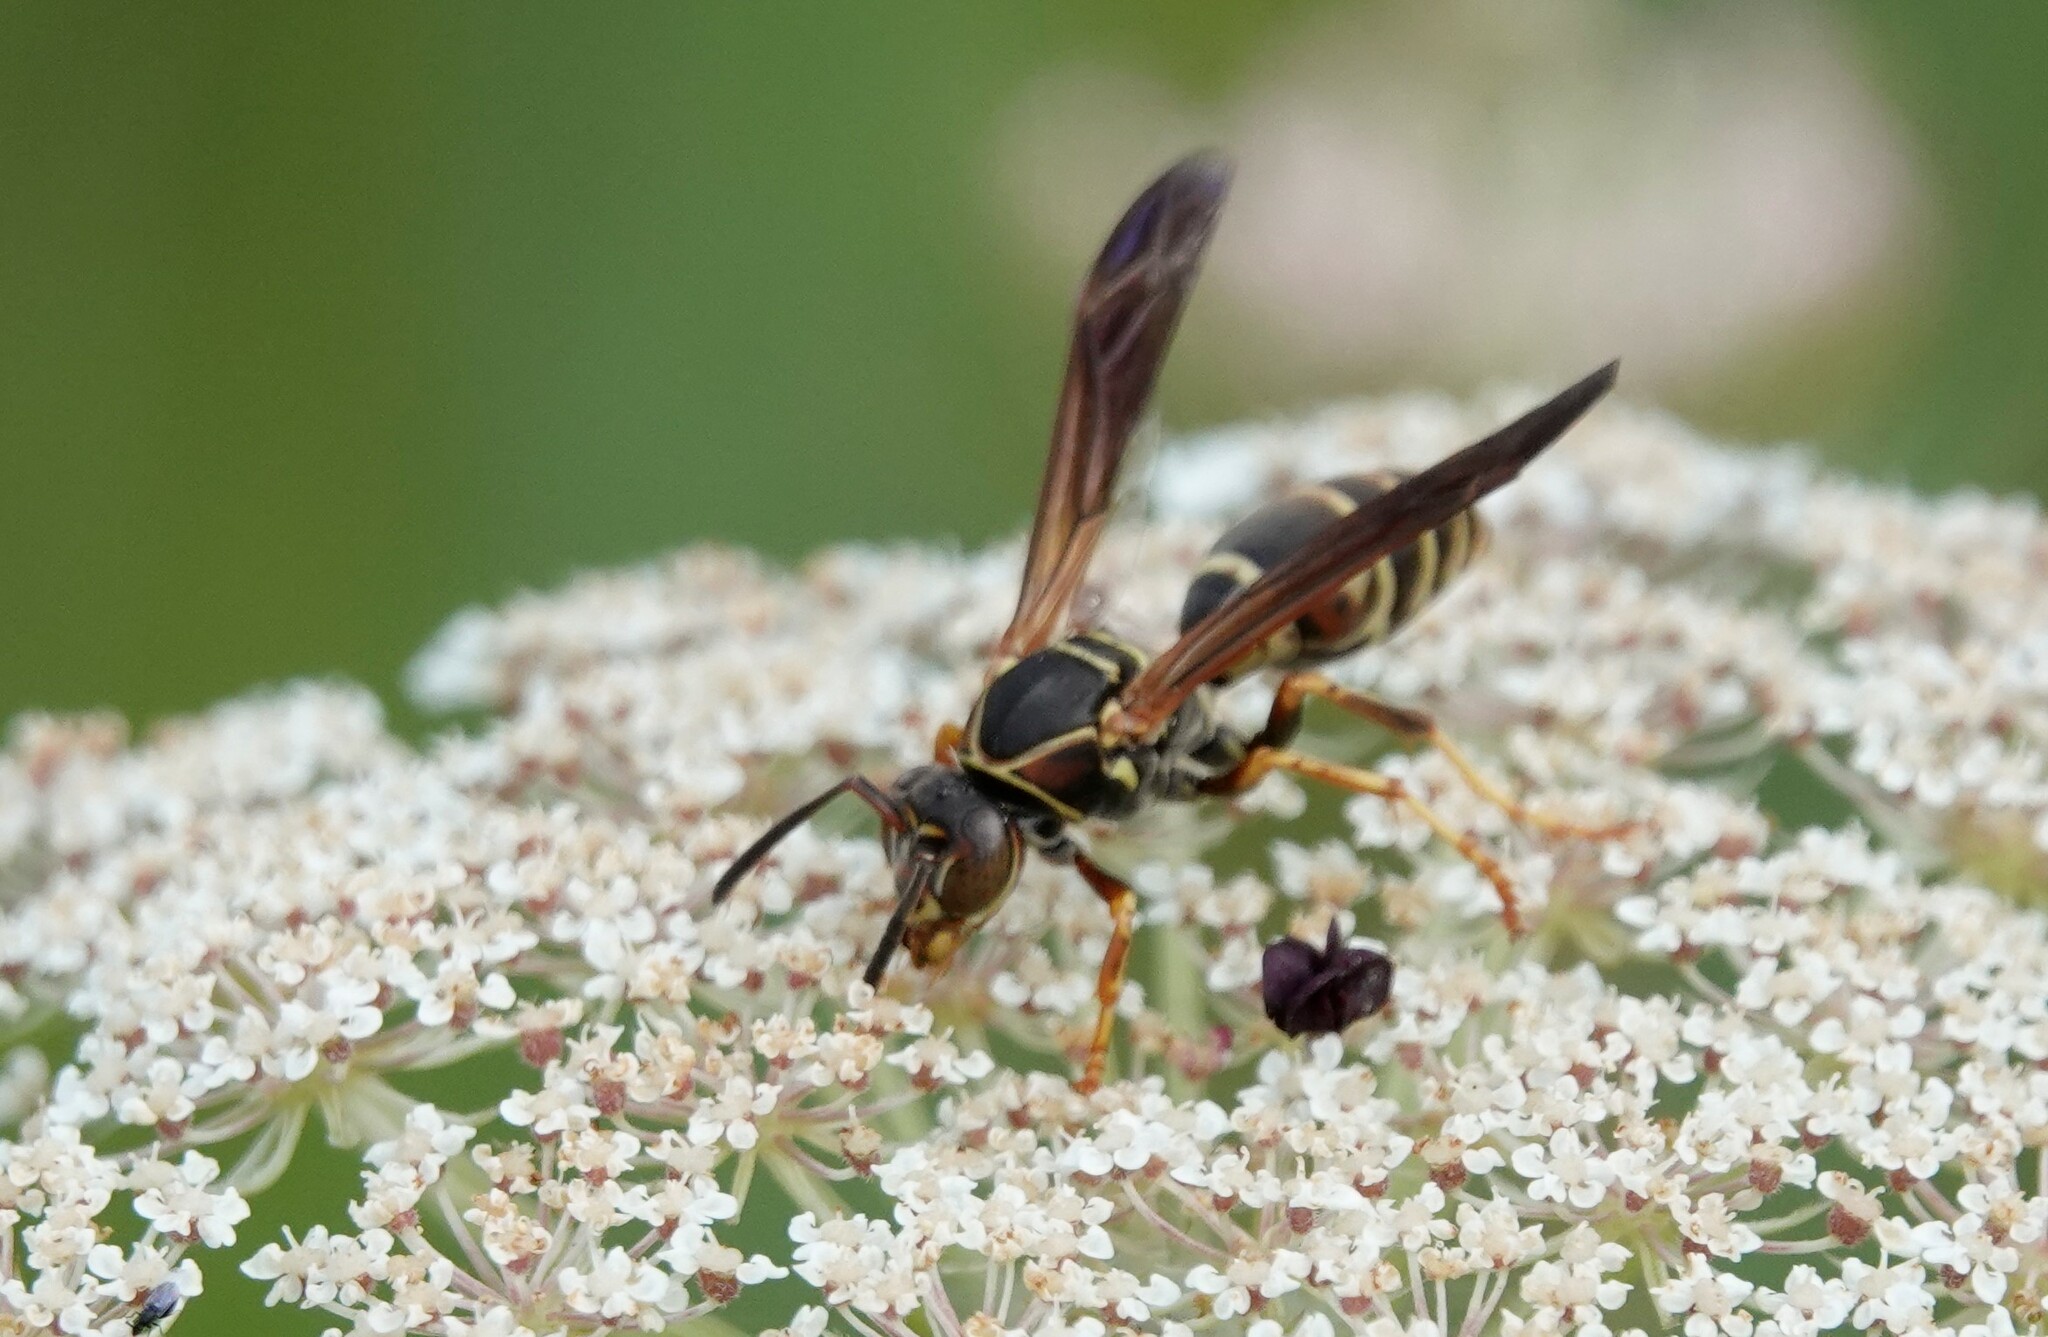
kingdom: Animalia
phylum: Arthropoda
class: Insecta
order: Hymenoptera
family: Eumenidae
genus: Polistes
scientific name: Polistes fuscatus
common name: Dark paper wasp
